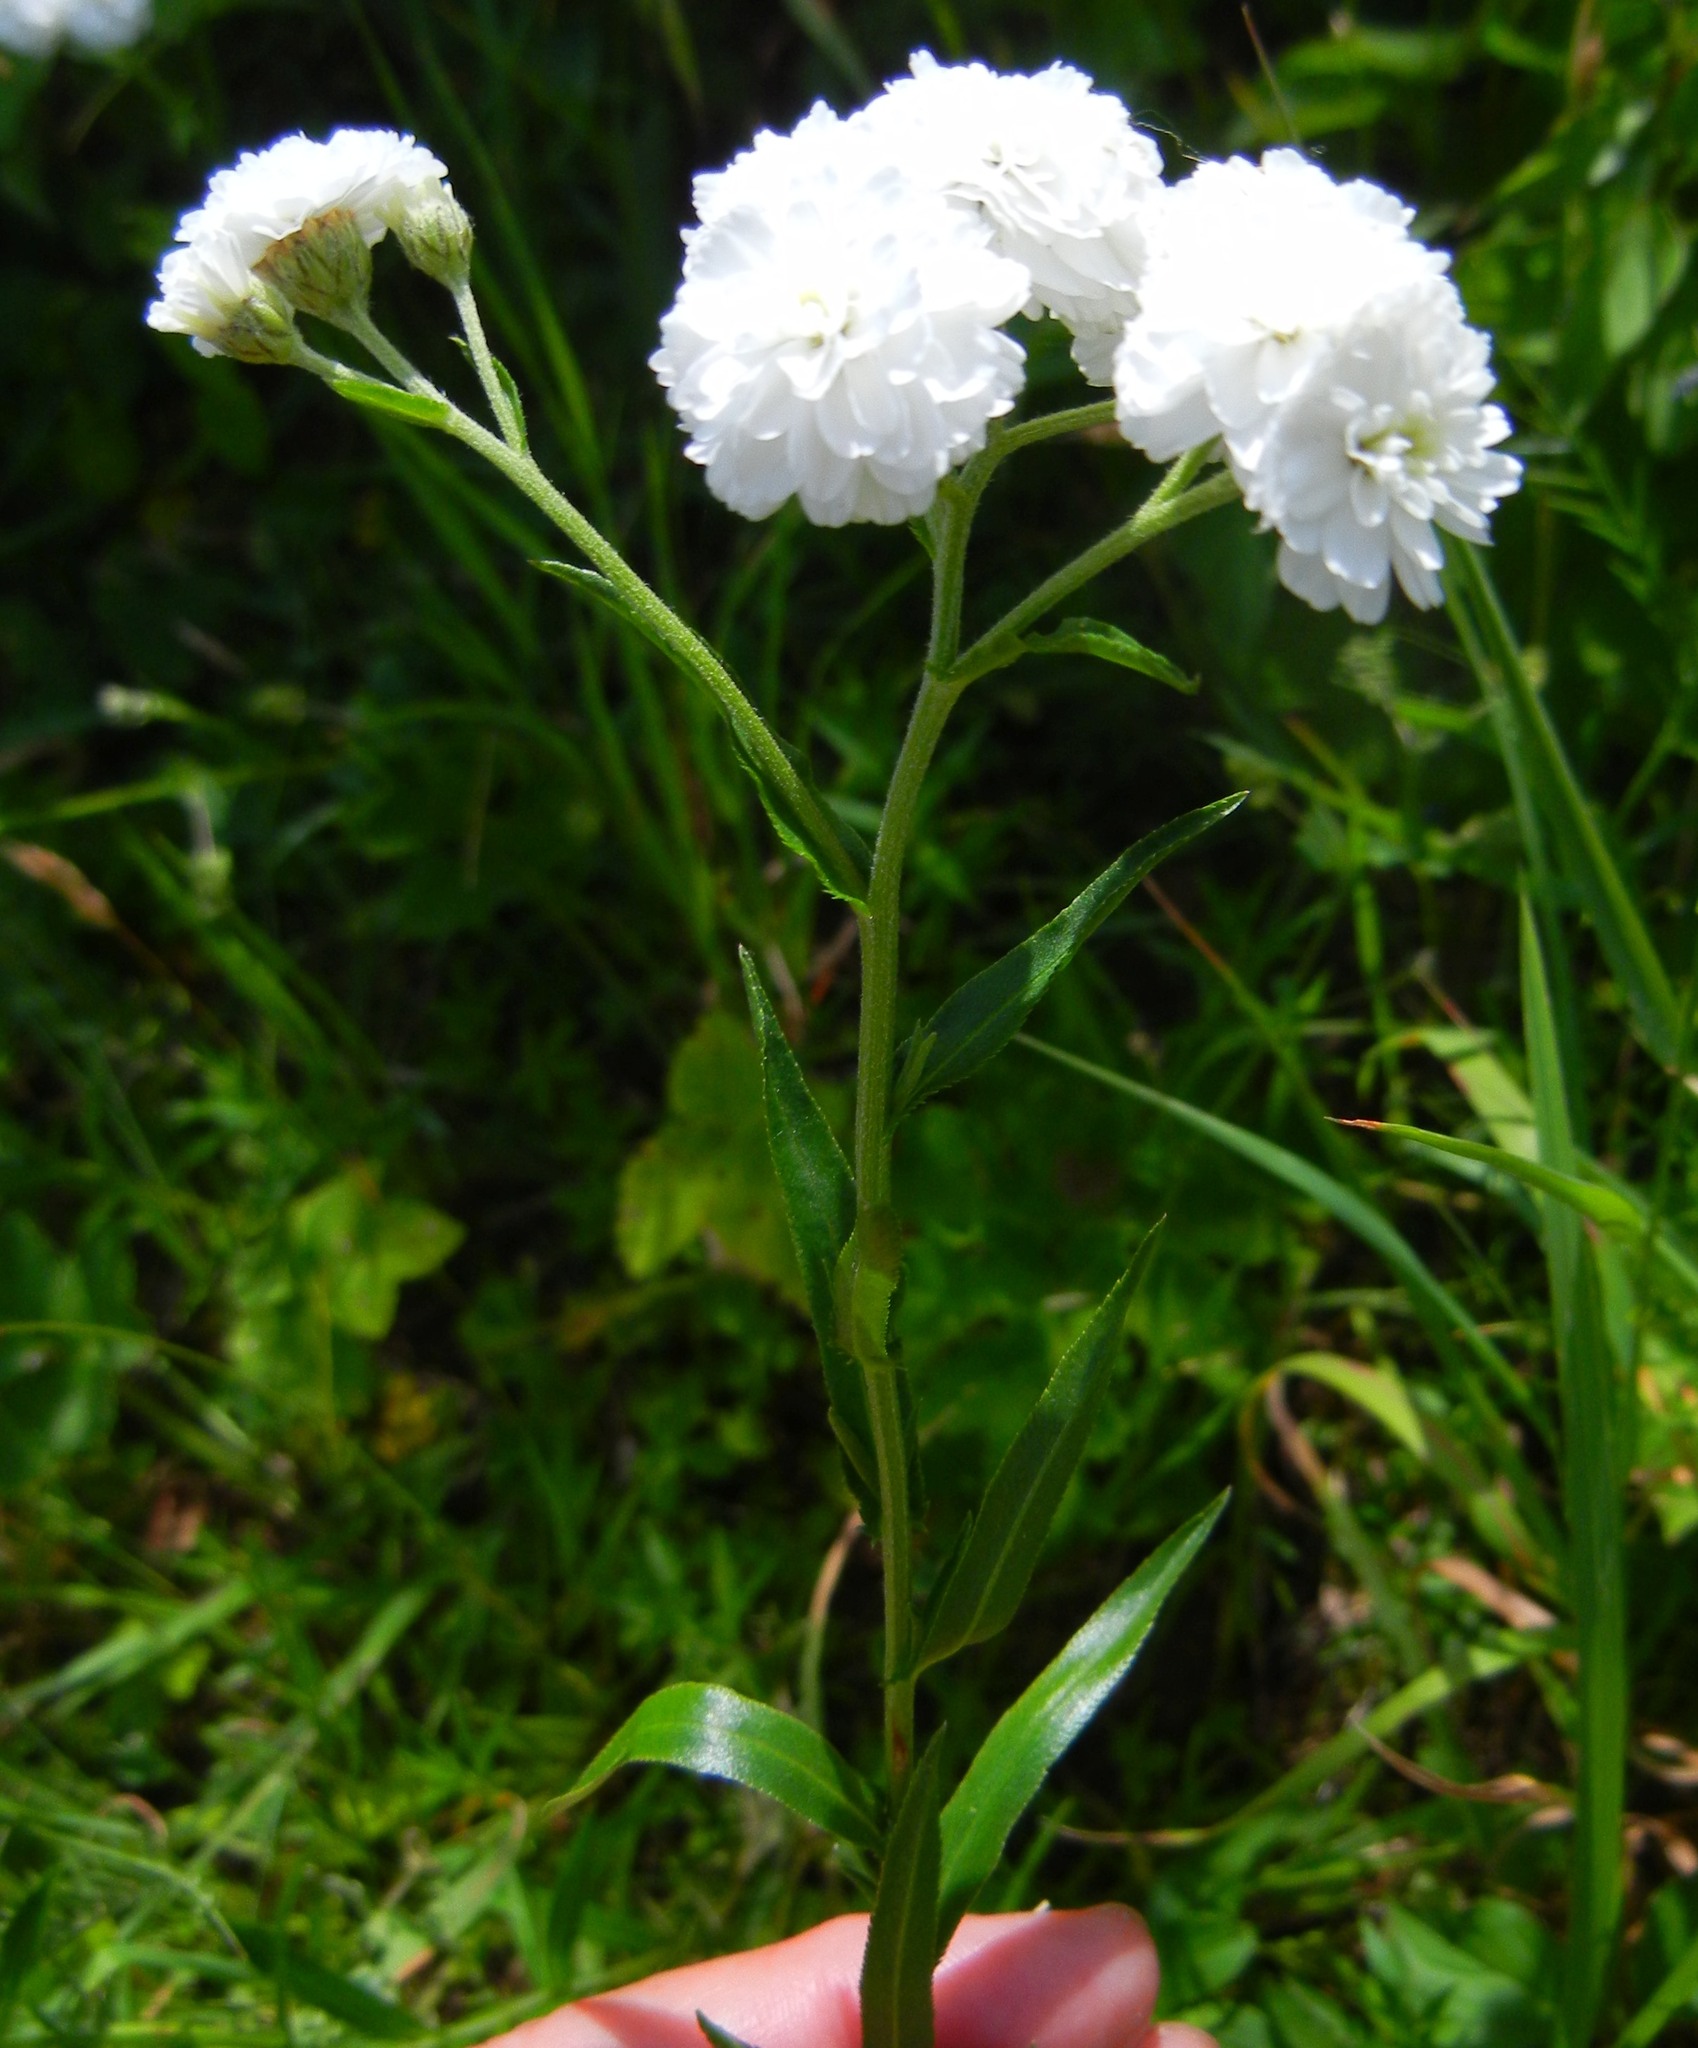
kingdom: Plantae
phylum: Tracheophyta
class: Magnoliopsida
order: Asterales
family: Asteraceae
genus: Achillea
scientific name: Achillea ptarmica
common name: Sneezeweed
